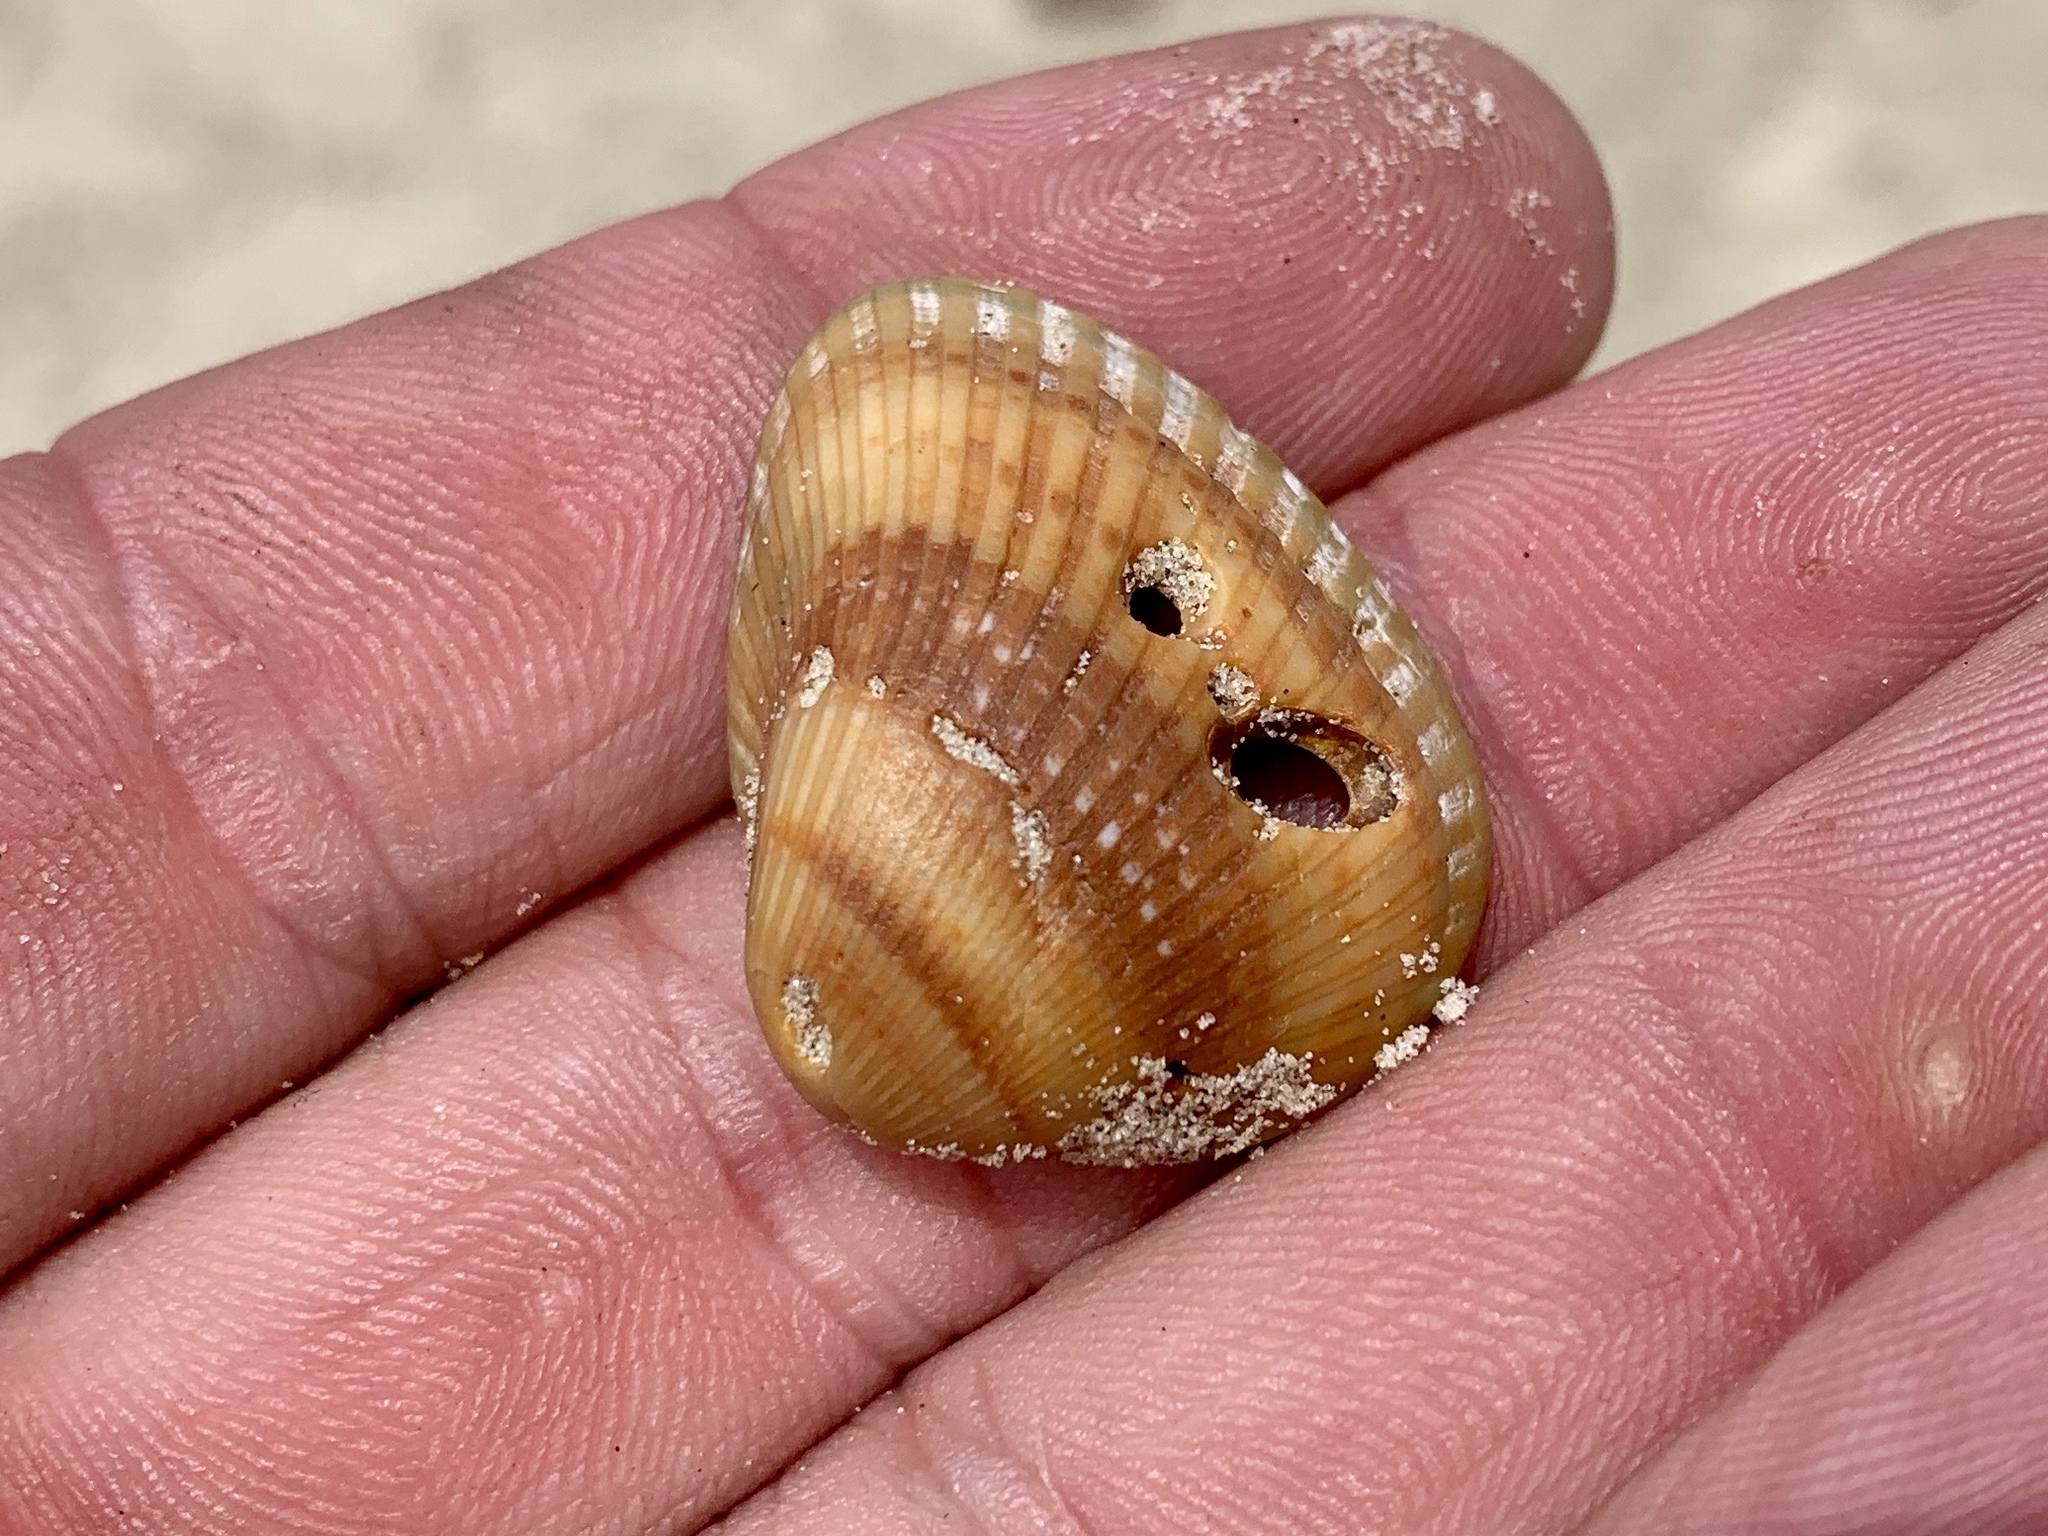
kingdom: Animalia
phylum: Mollusca
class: Bivalvia
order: Arcida
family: Noetiidae
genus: Noetia
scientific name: Noetia ponderosa
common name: Ponderous ark
